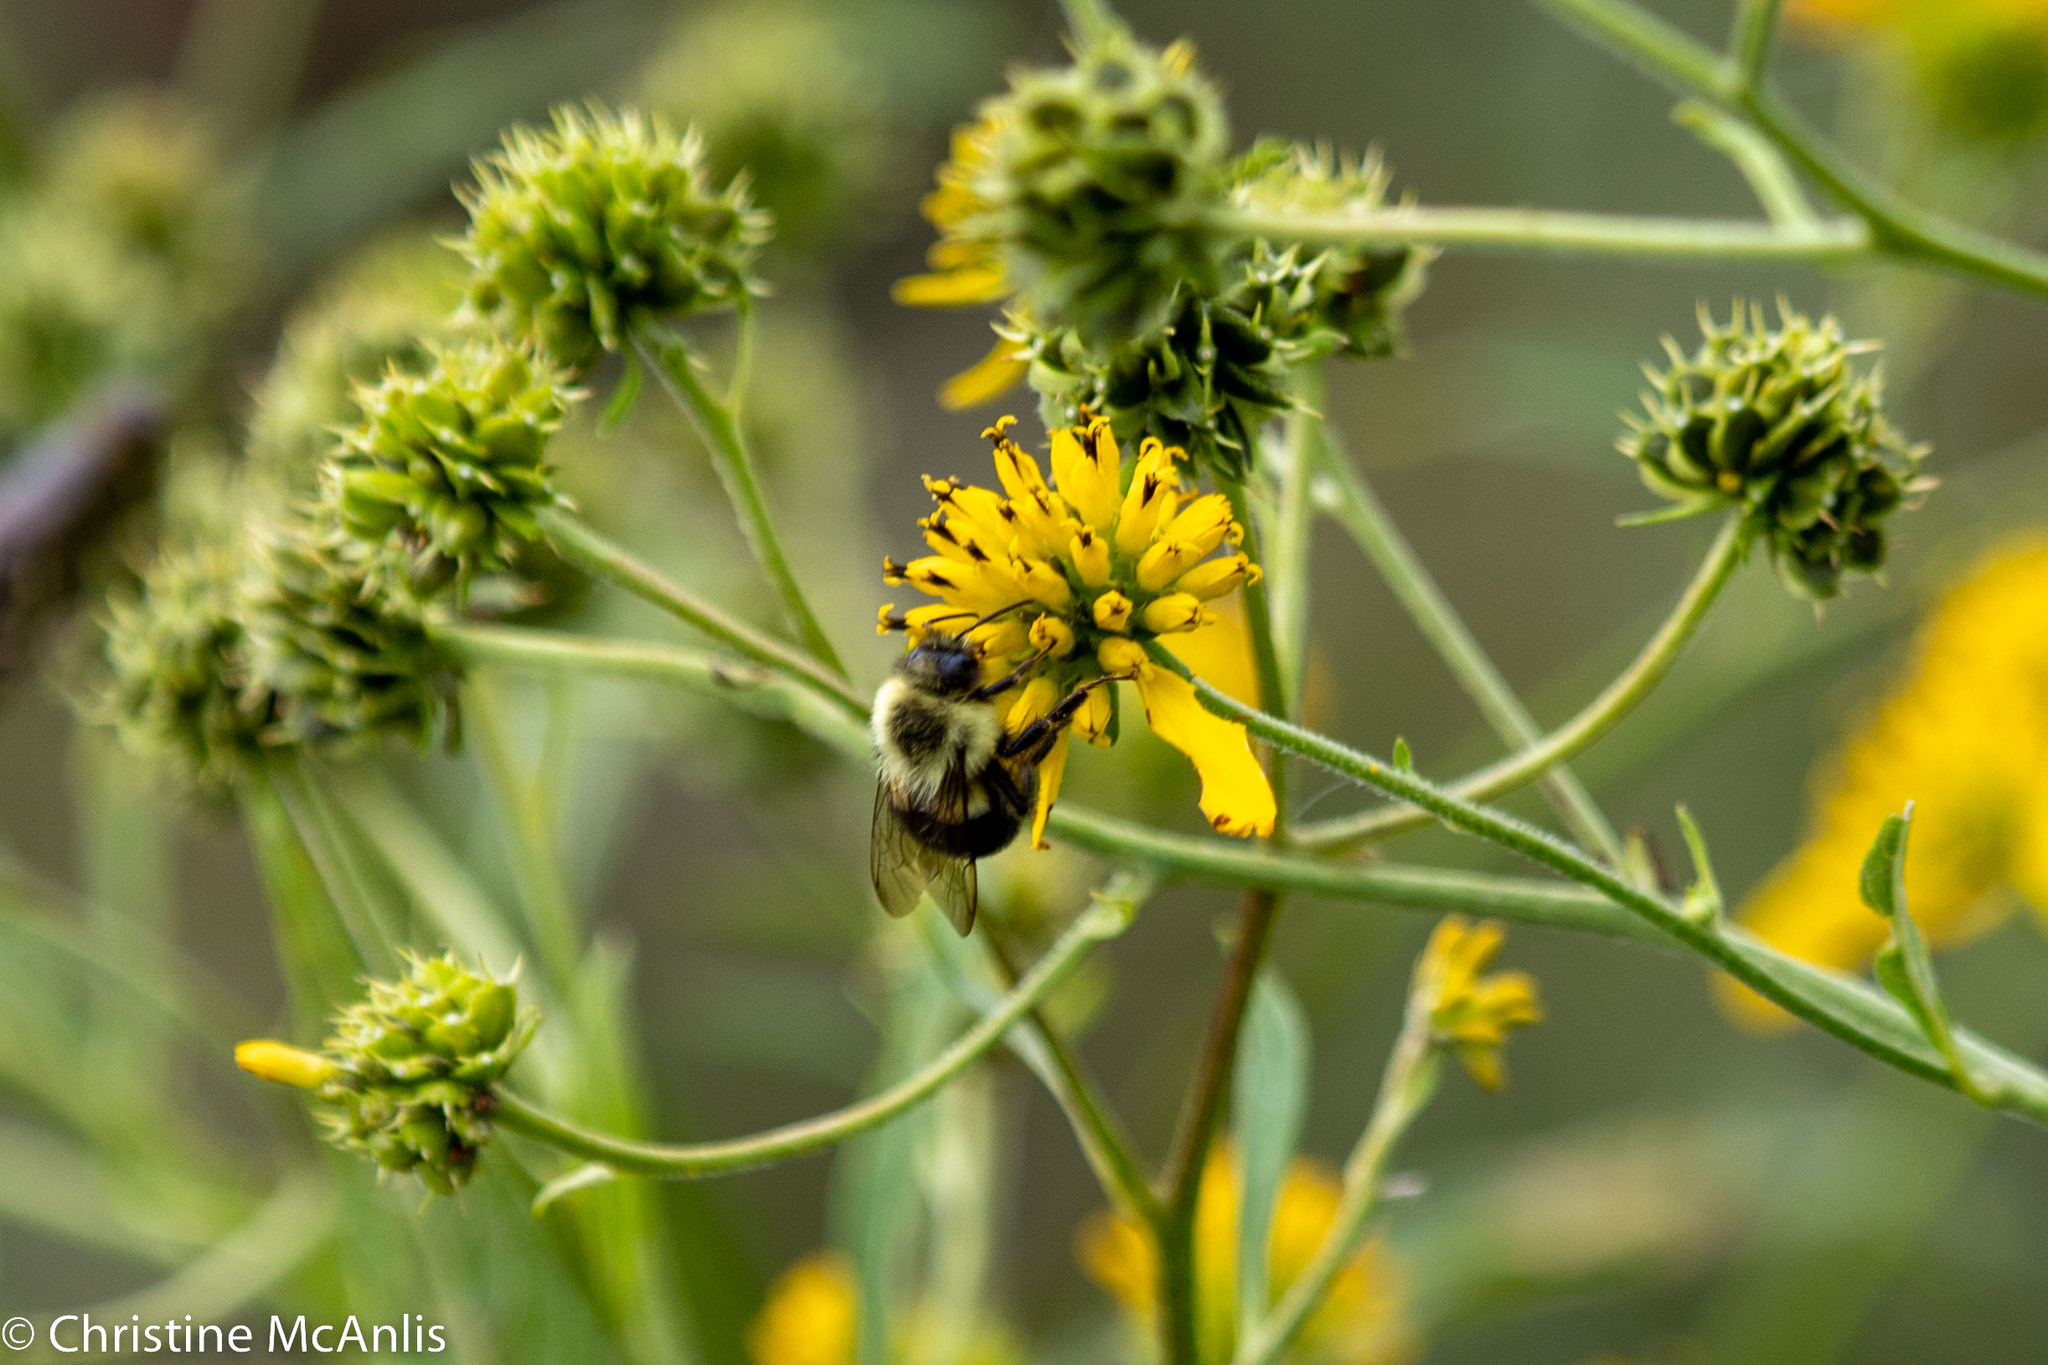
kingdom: Animalia
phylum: Arthropoda
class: Insecta
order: Hymenoptera
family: Apidae
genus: Bombus
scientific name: Bombus impatiens
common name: Common eastern bumble bee
